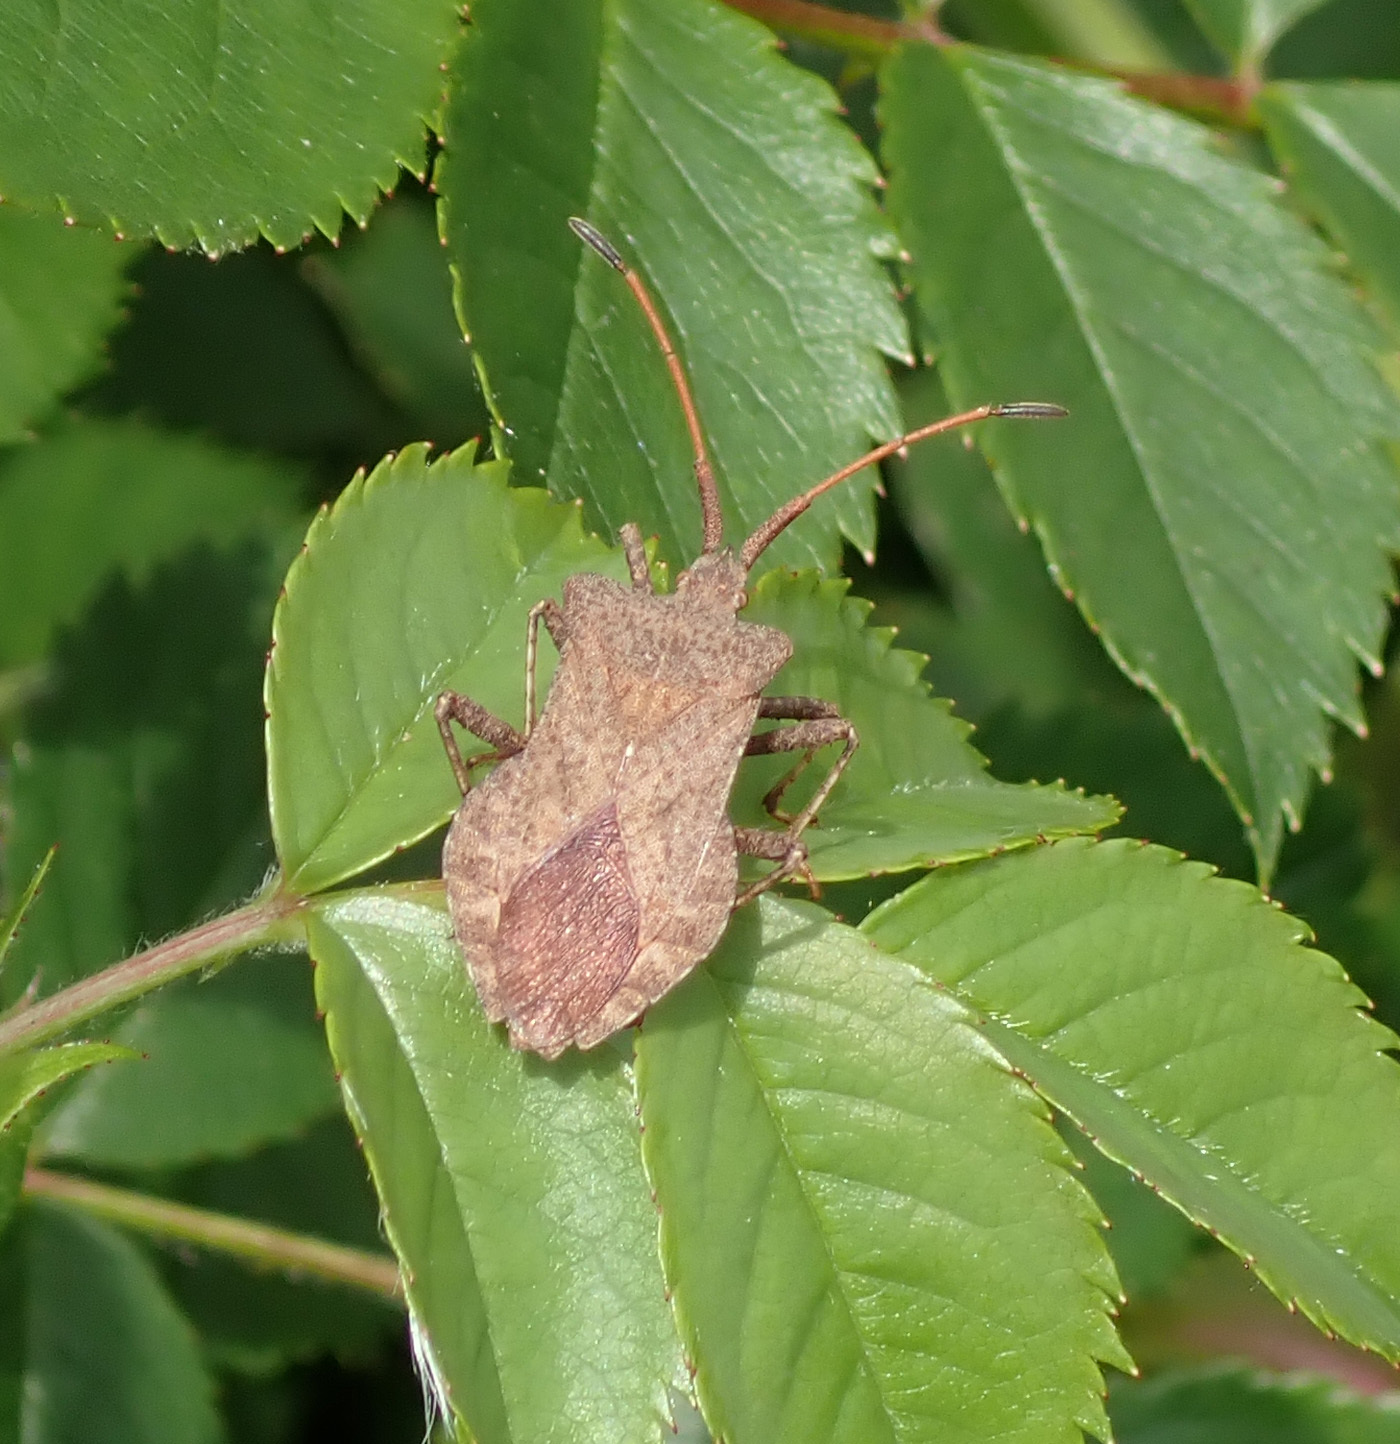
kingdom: Animalia
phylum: Arthropoda
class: Insecta
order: Hemiptera
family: Coreidae
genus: Coreus
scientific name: Coreus marginatus
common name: Dock bug
